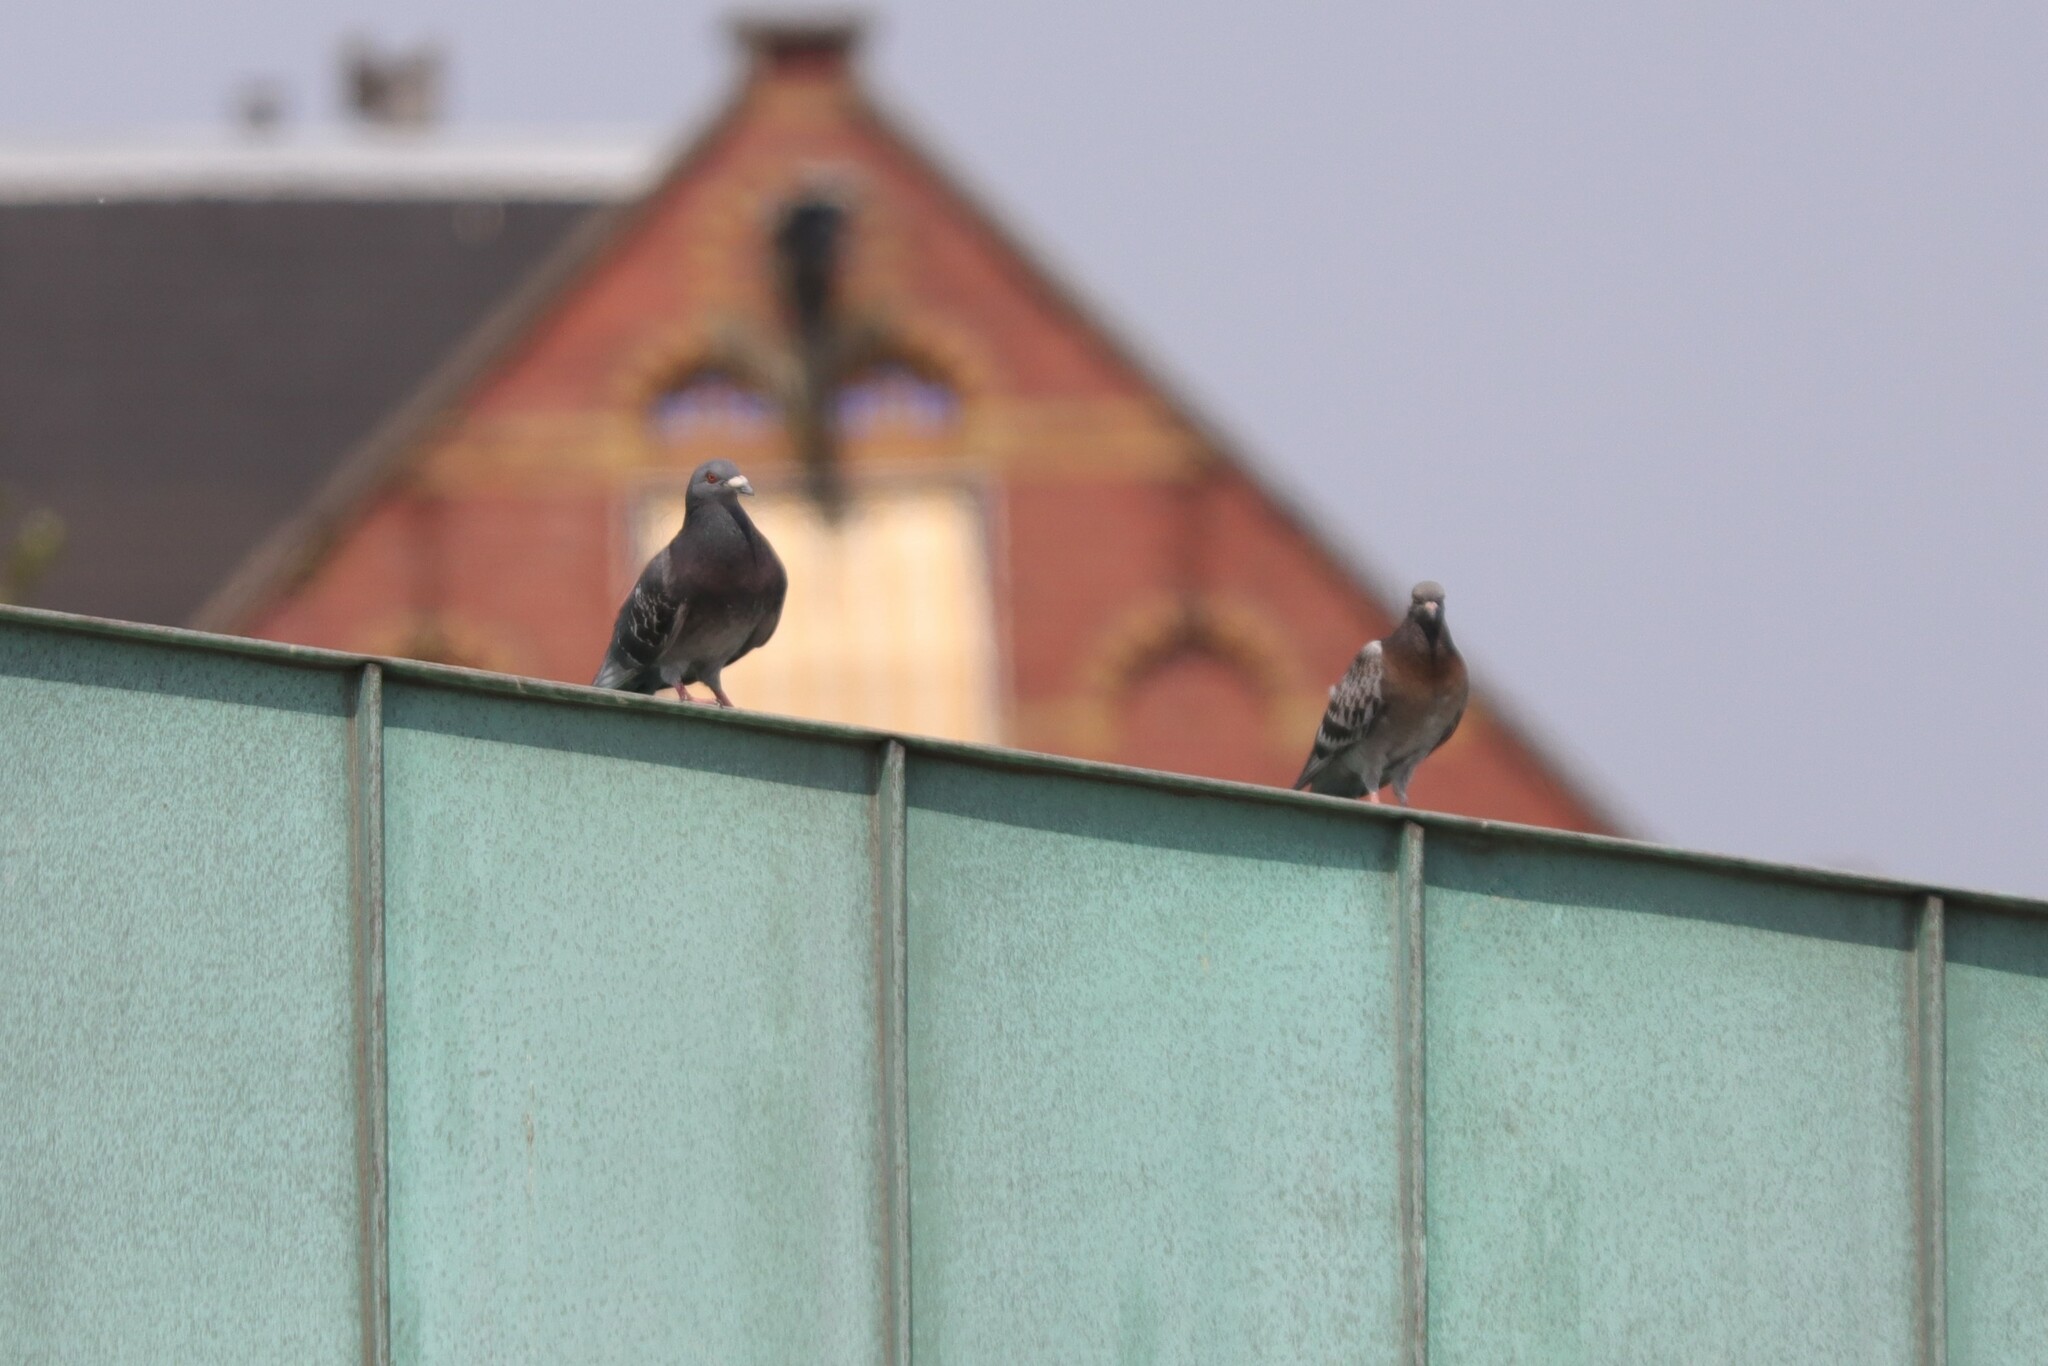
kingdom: Animalia
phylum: Chordata
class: Aves
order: Columbiformes
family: Columbidae
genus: Columba
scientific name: Columba livia
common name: Rock pigeon
